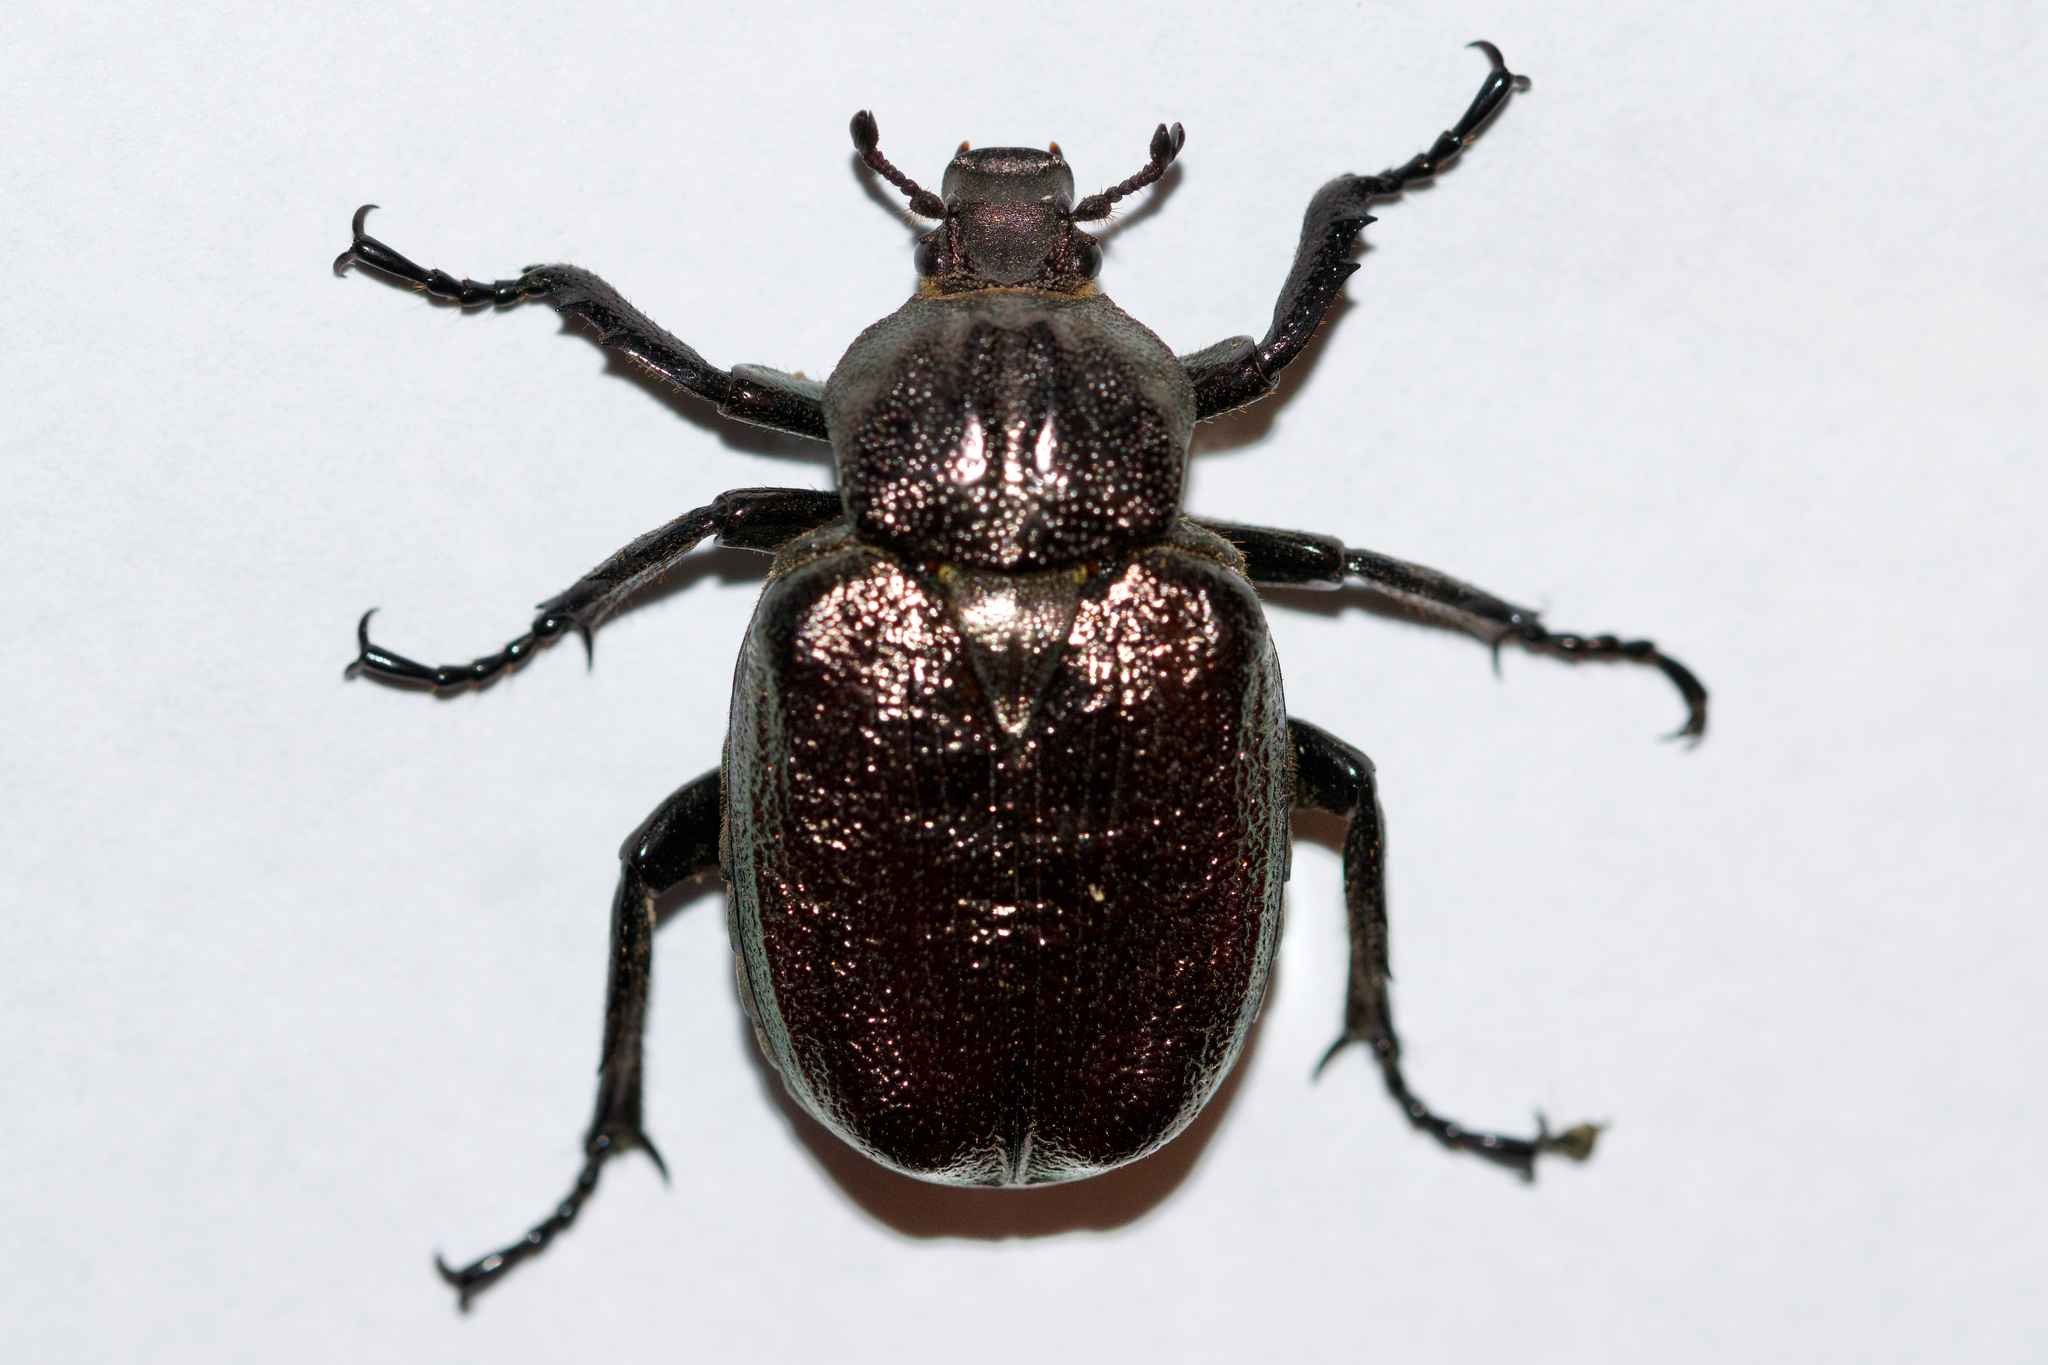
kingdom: Animalia
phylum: Arthropoda
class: Insecta
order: Coleoptera
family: Scarabaeidae
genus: Osmoderma
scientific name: Osmoderma scabra
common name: Rough hermit beetle
